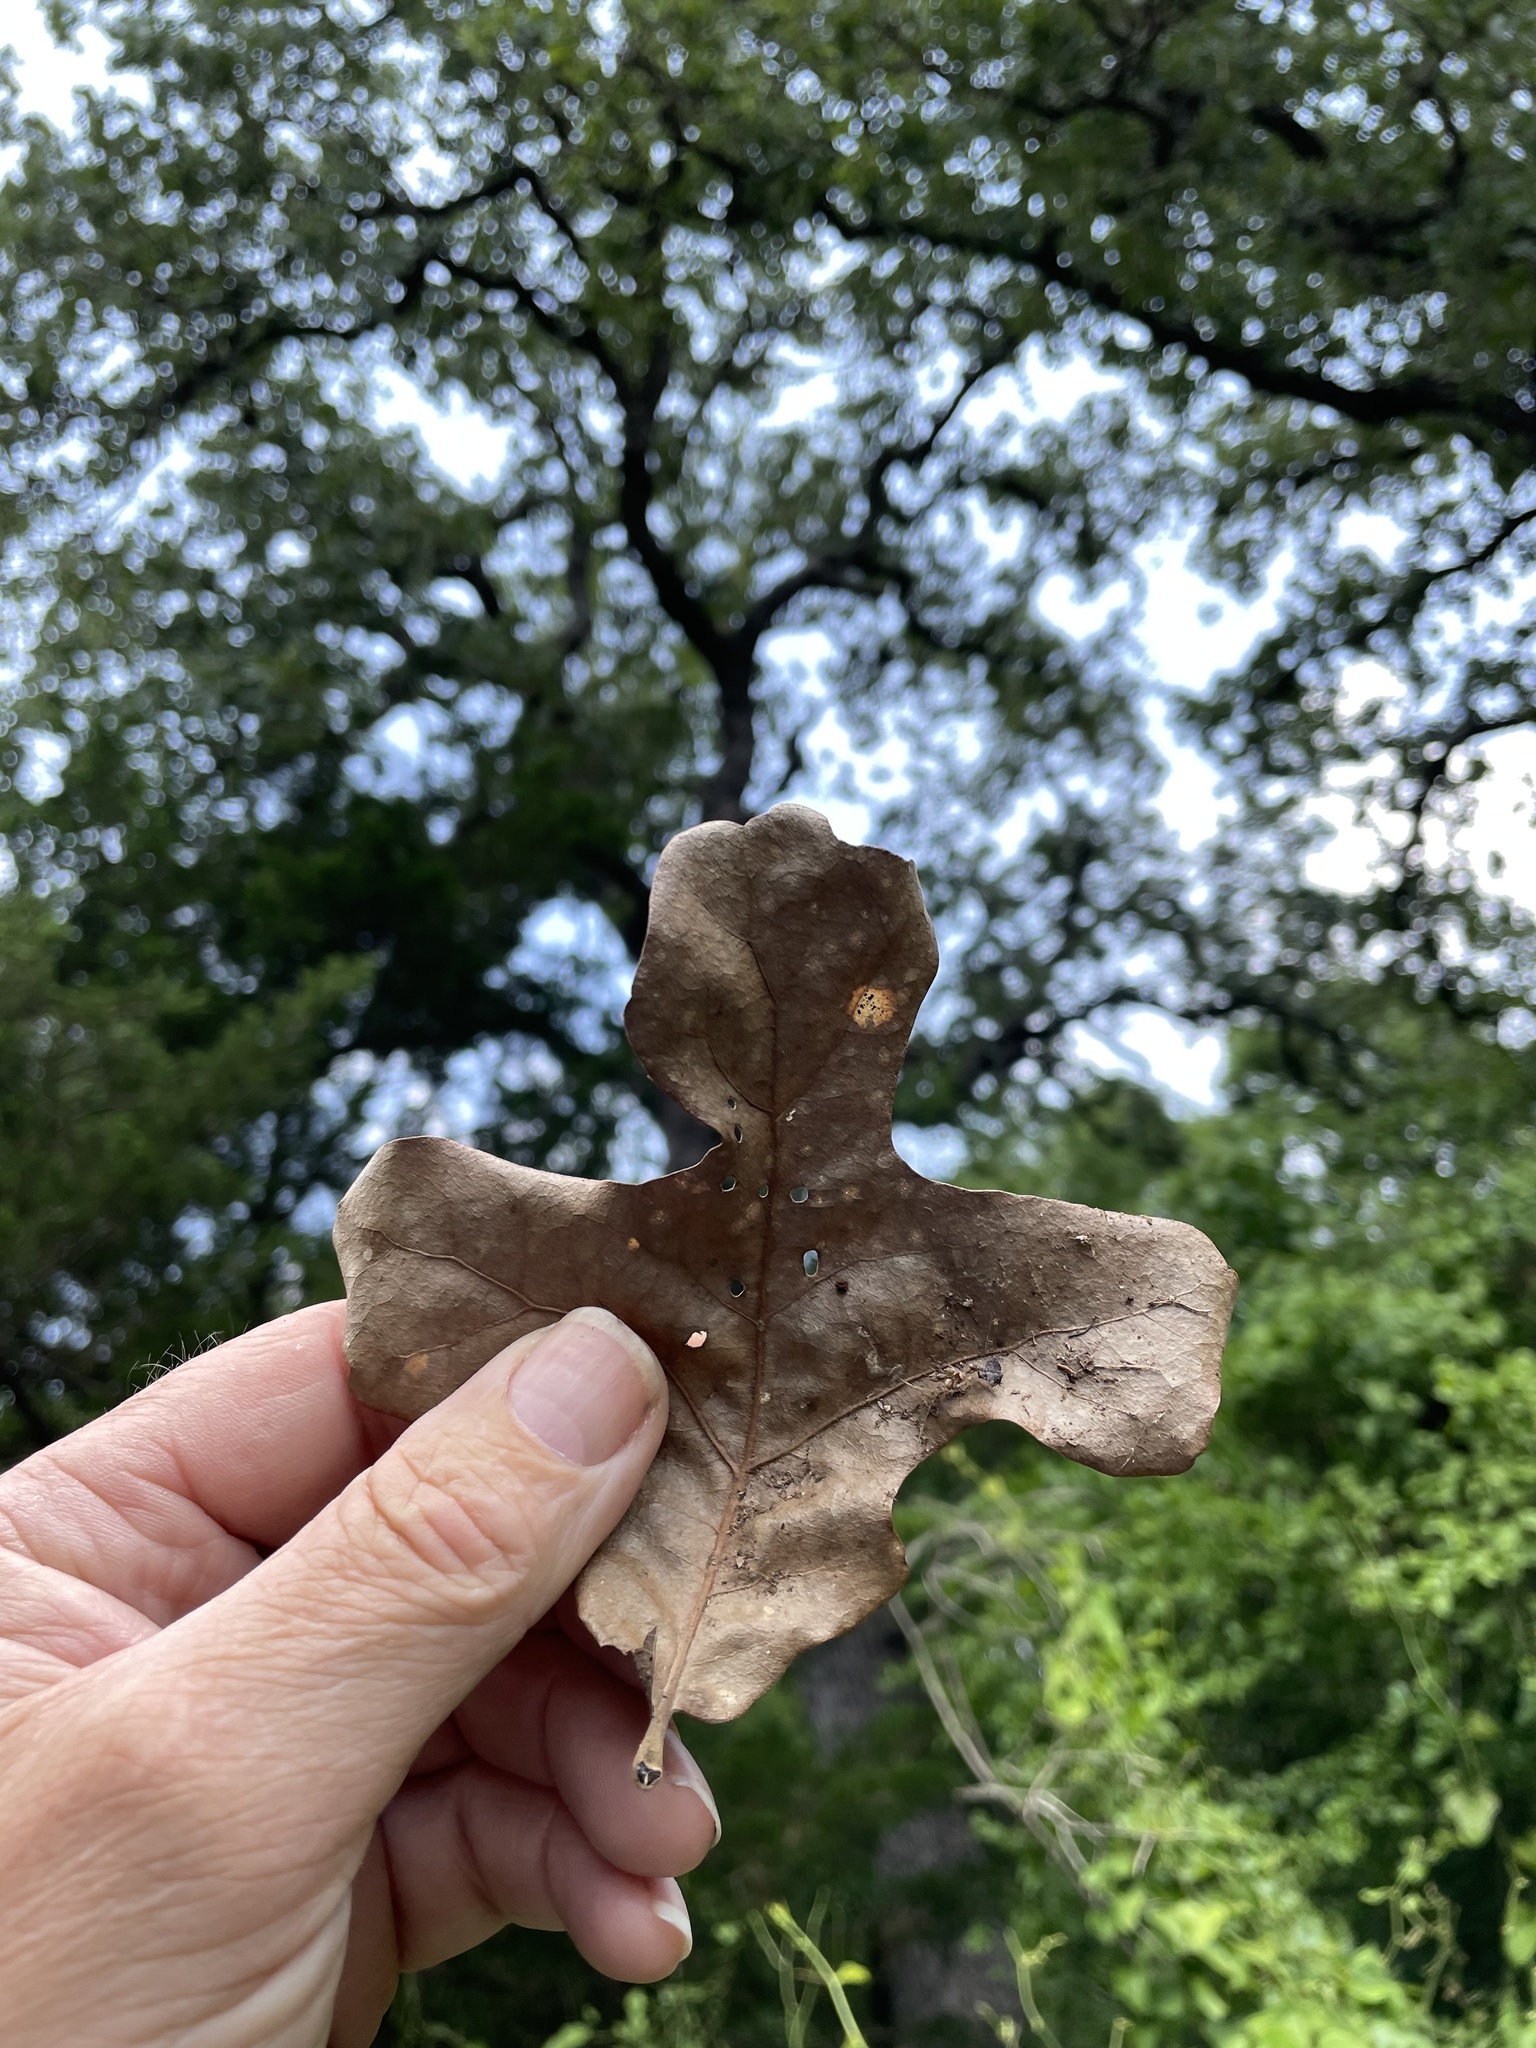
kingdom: Plantae
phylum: Tracheophyta
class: Magnoliopsida
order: Fagales
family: Fagaceae
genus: Quercus
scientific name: Quercus stellata
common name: Post oak
